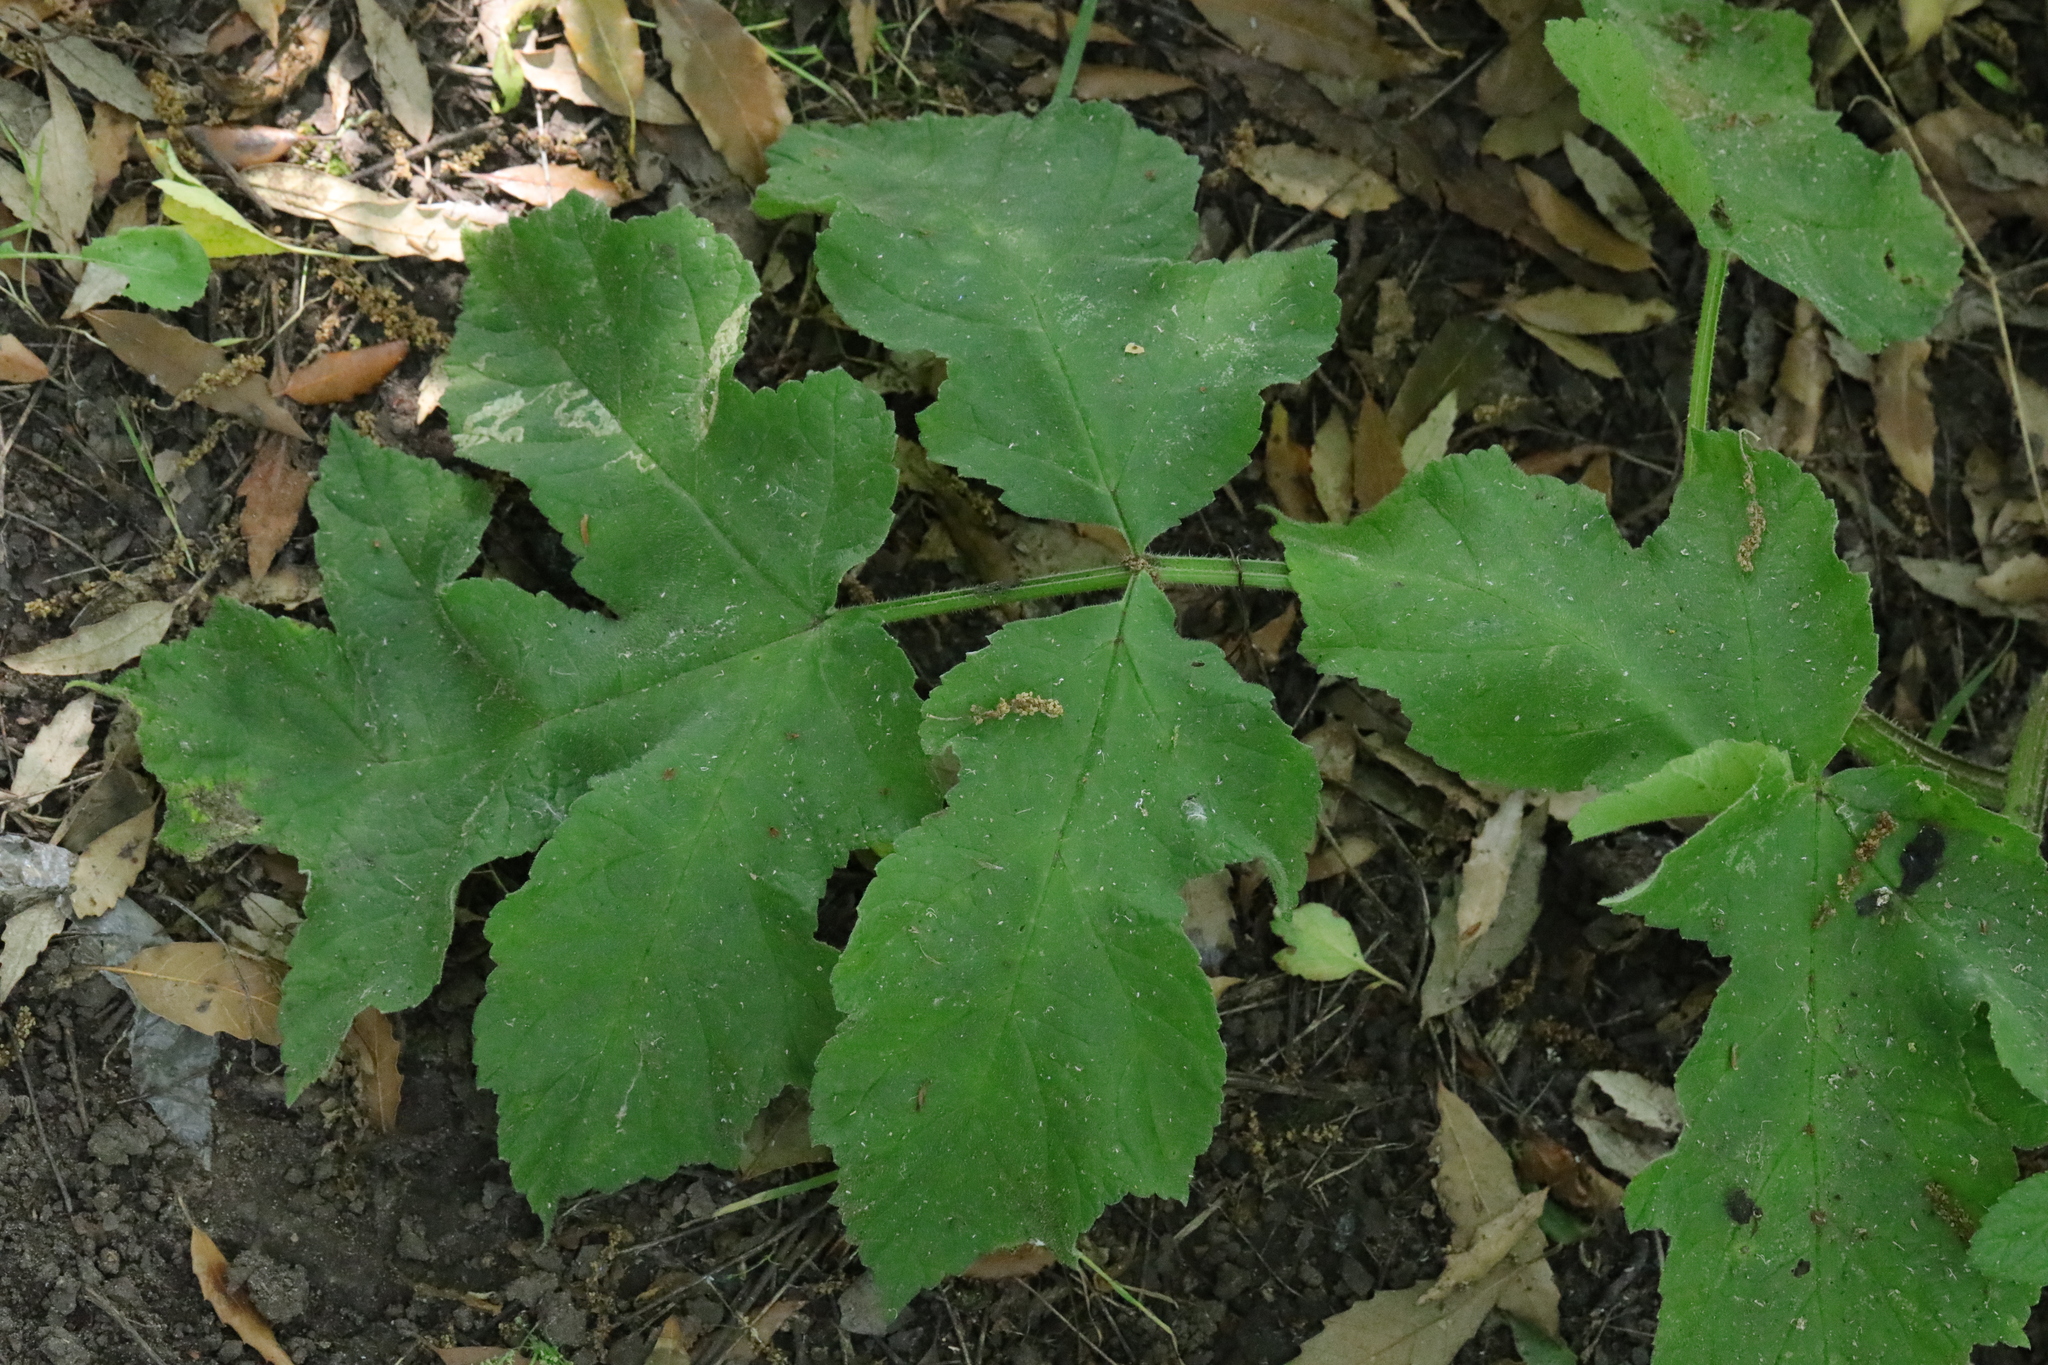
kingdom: Plantae
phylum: Tracheophyta
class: Magnoliopsida
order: Apiales
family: Apiaceae
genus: Heracleum
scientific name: Heracleum sphondylium
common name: Hogweed
